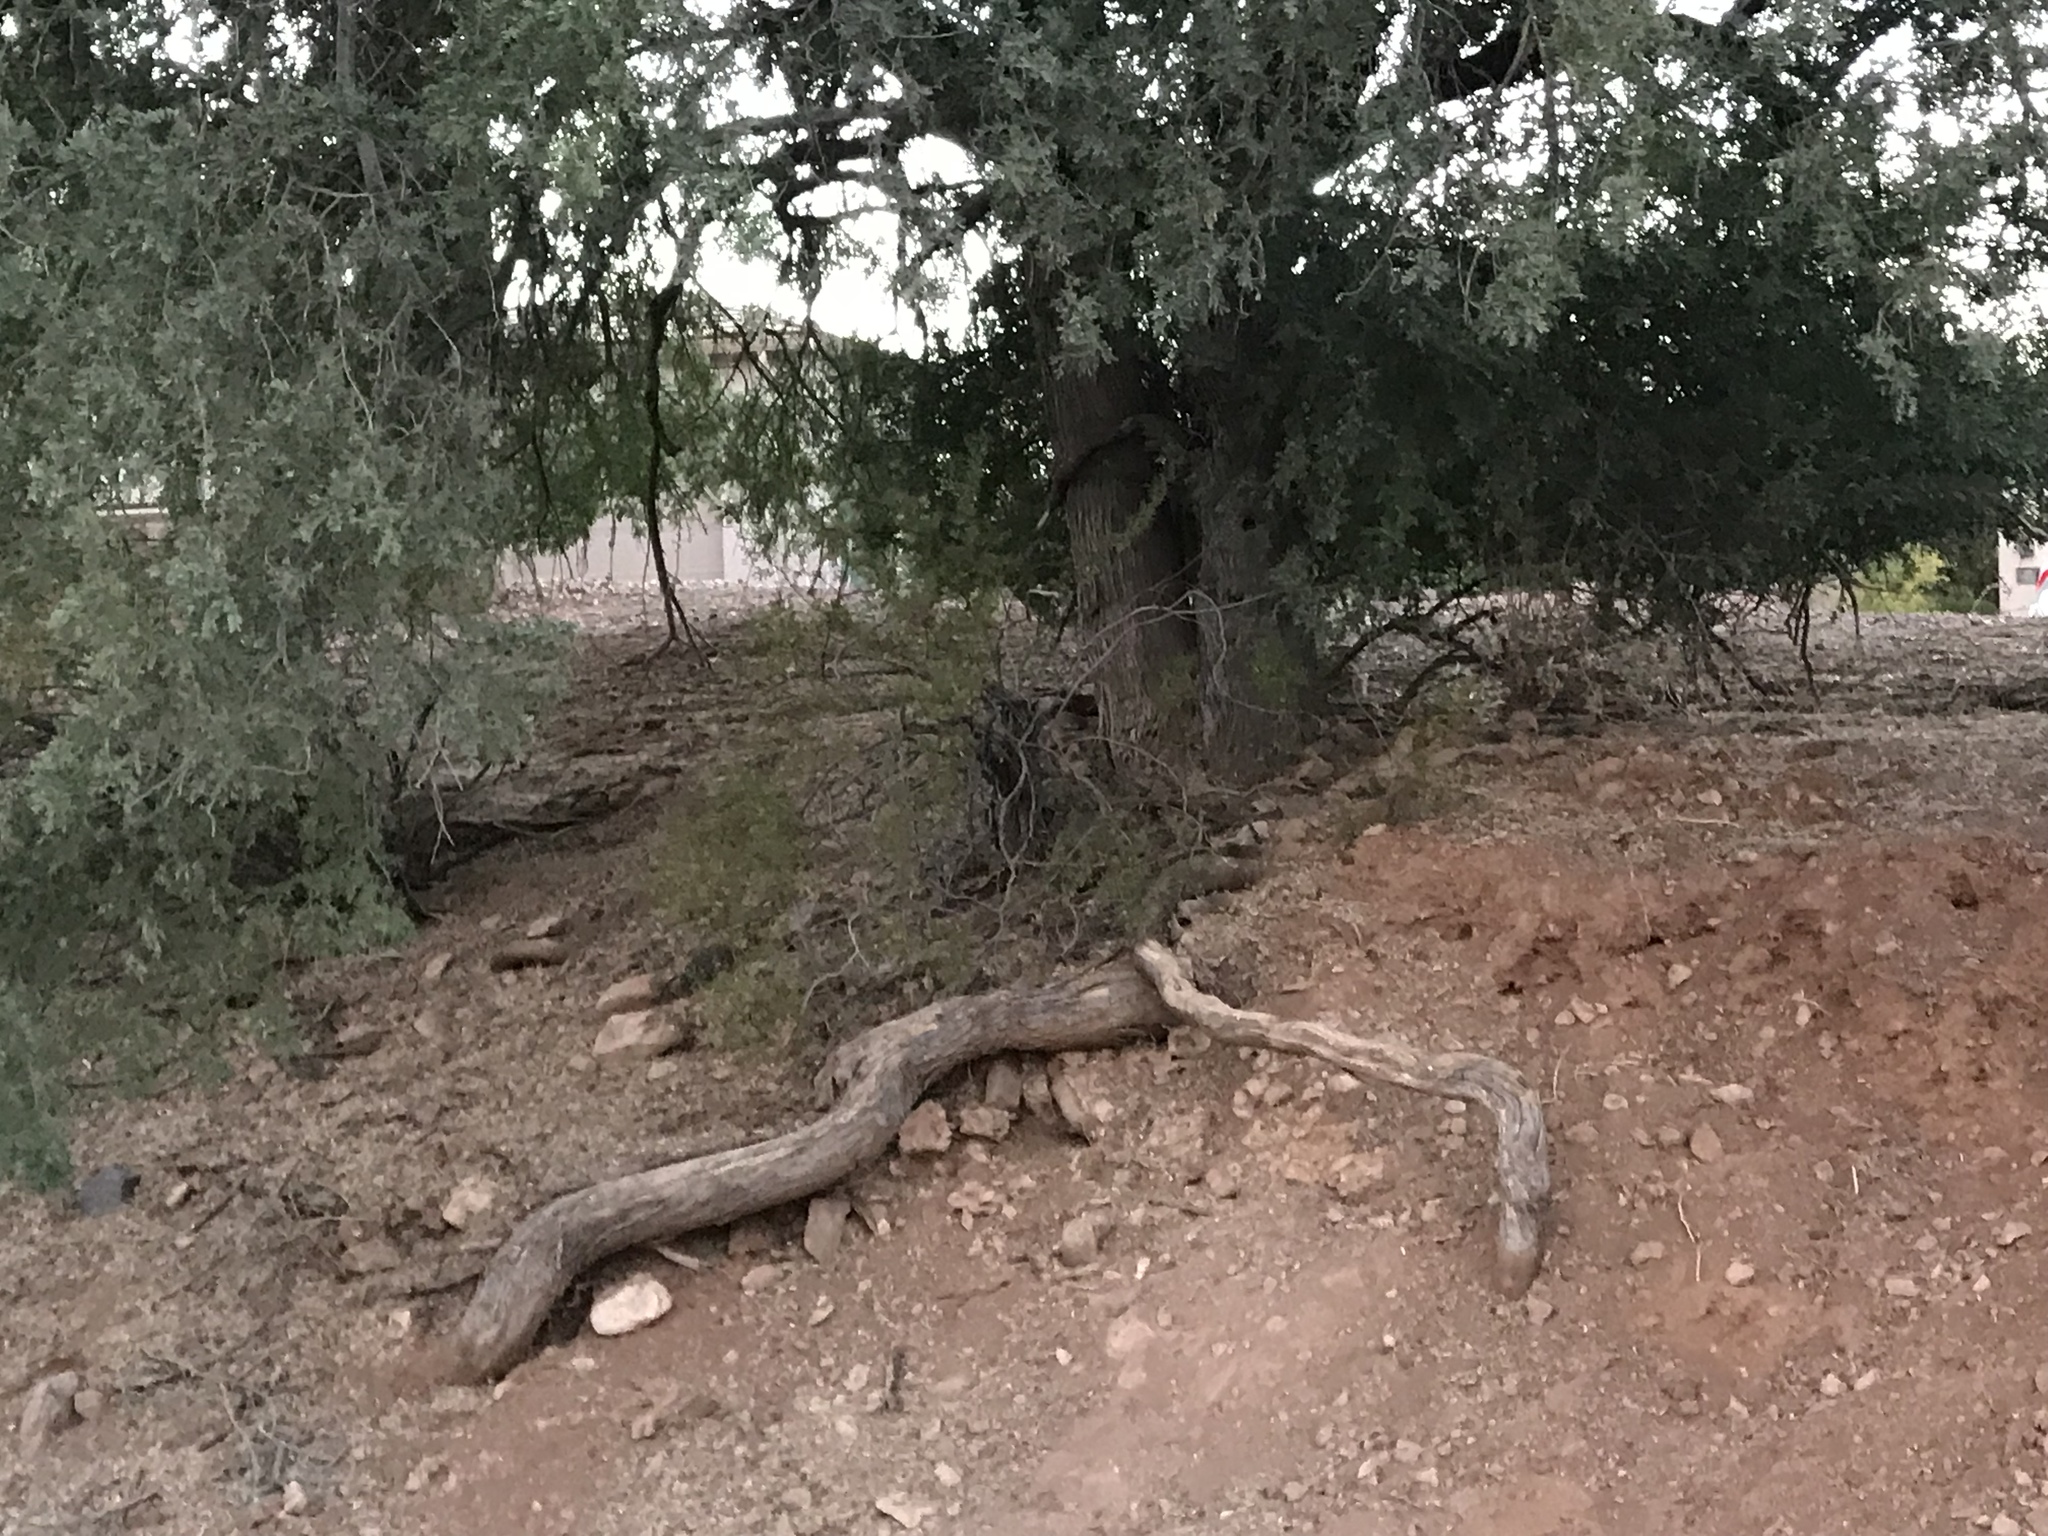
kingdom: Plantae
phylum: Tracheophyta
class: Magnoliopsida
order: Fabales
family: Fabaceae
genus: Olneya
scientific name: Olneya tesota
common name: Desert ironwood
